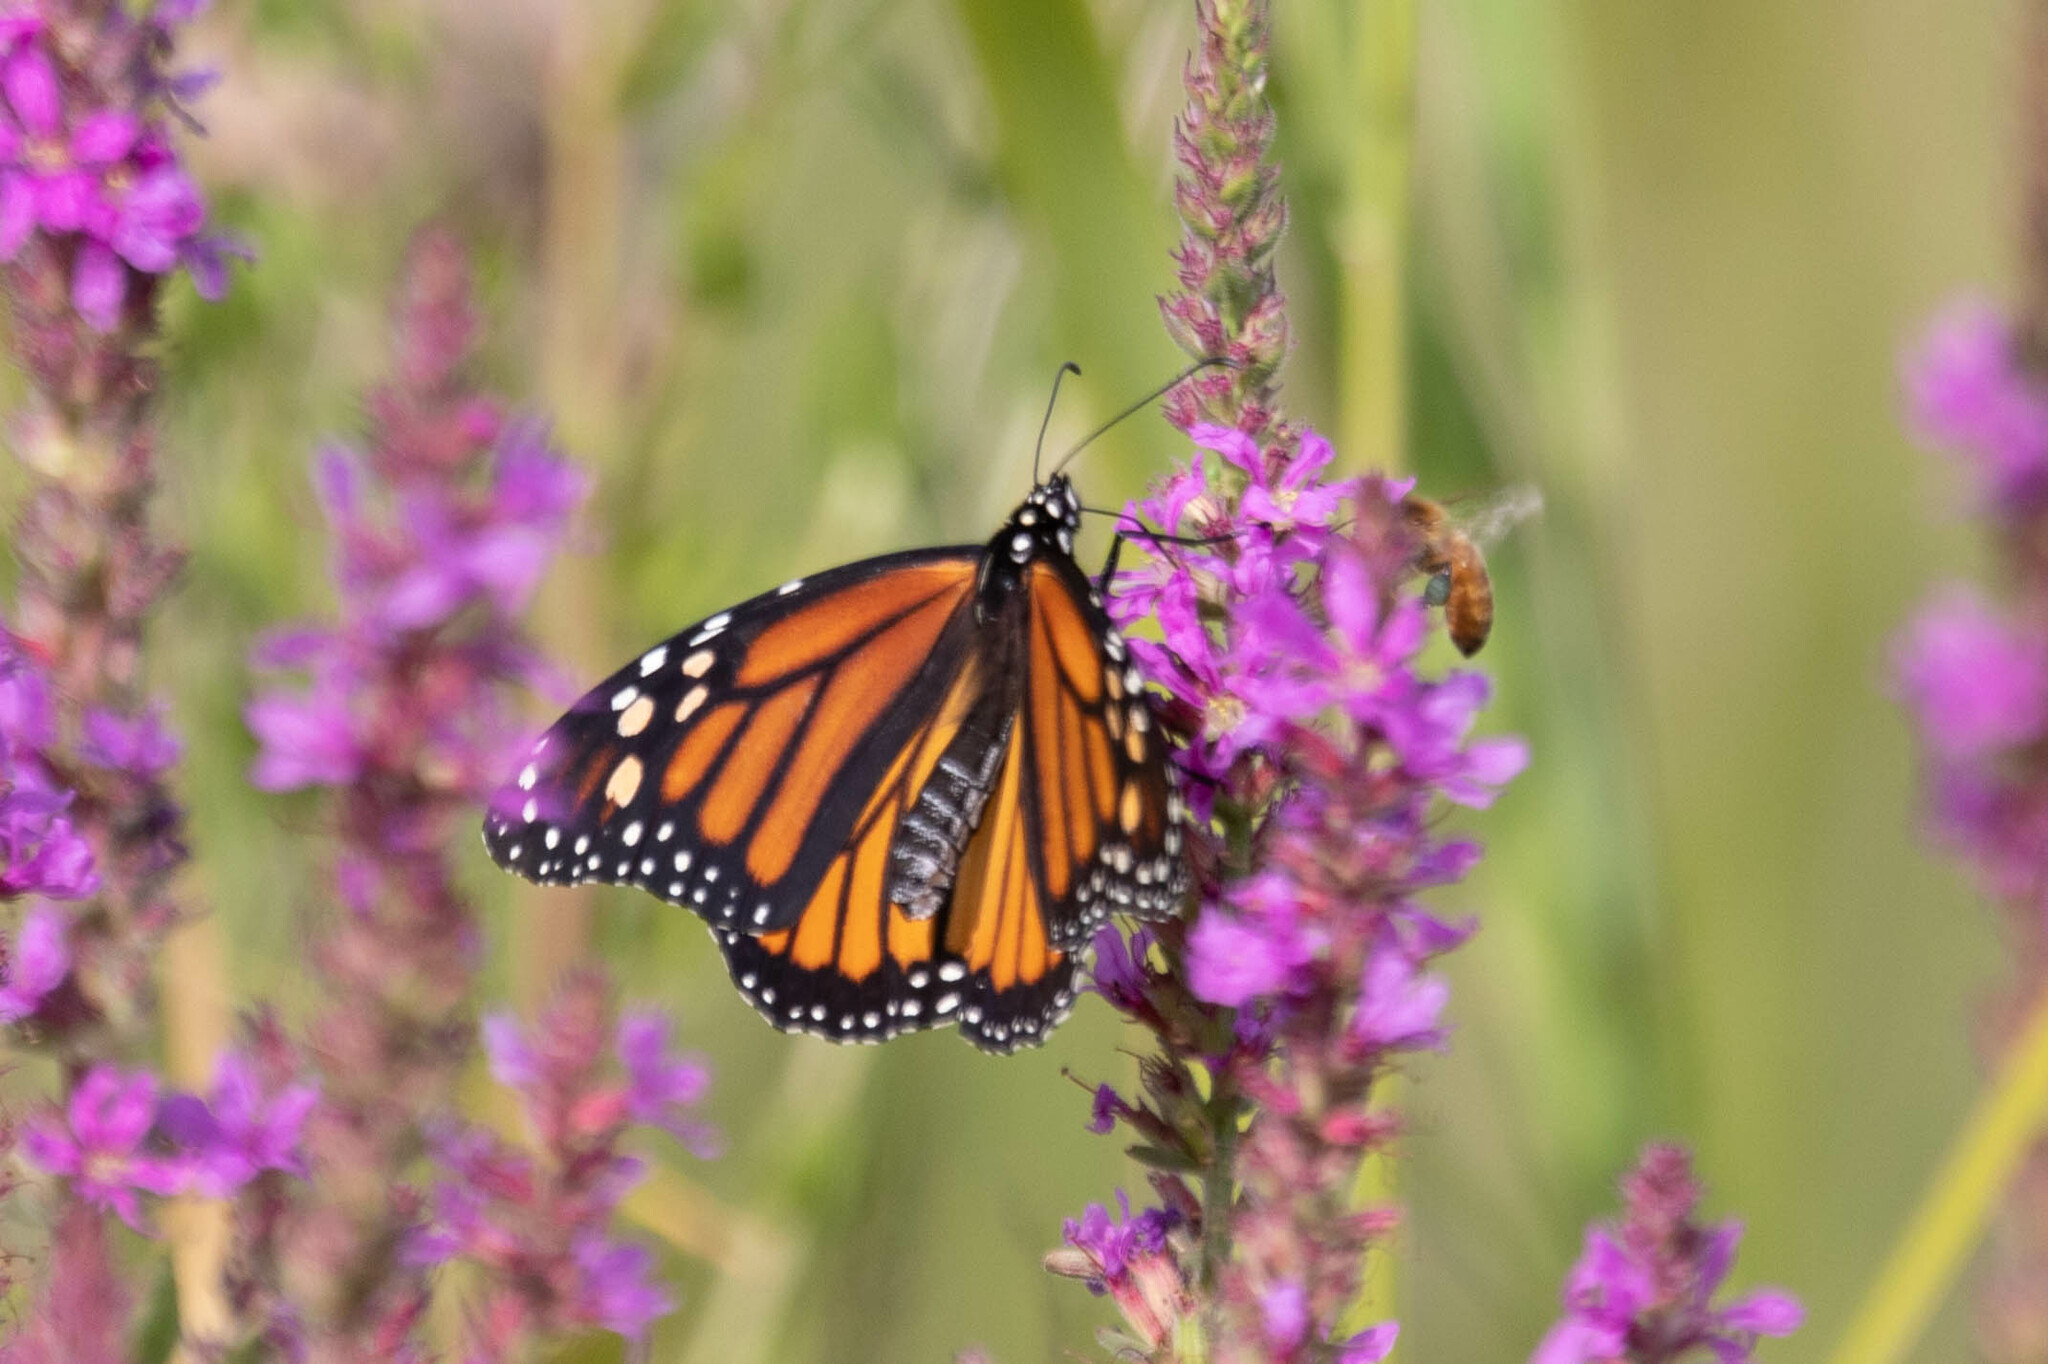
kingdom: Animalia
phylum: Arthropoda
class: Insecta
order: Lepidoptera
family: Nymphalidae
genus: Danaus
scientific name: Danaus plexippus
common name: Monarch
